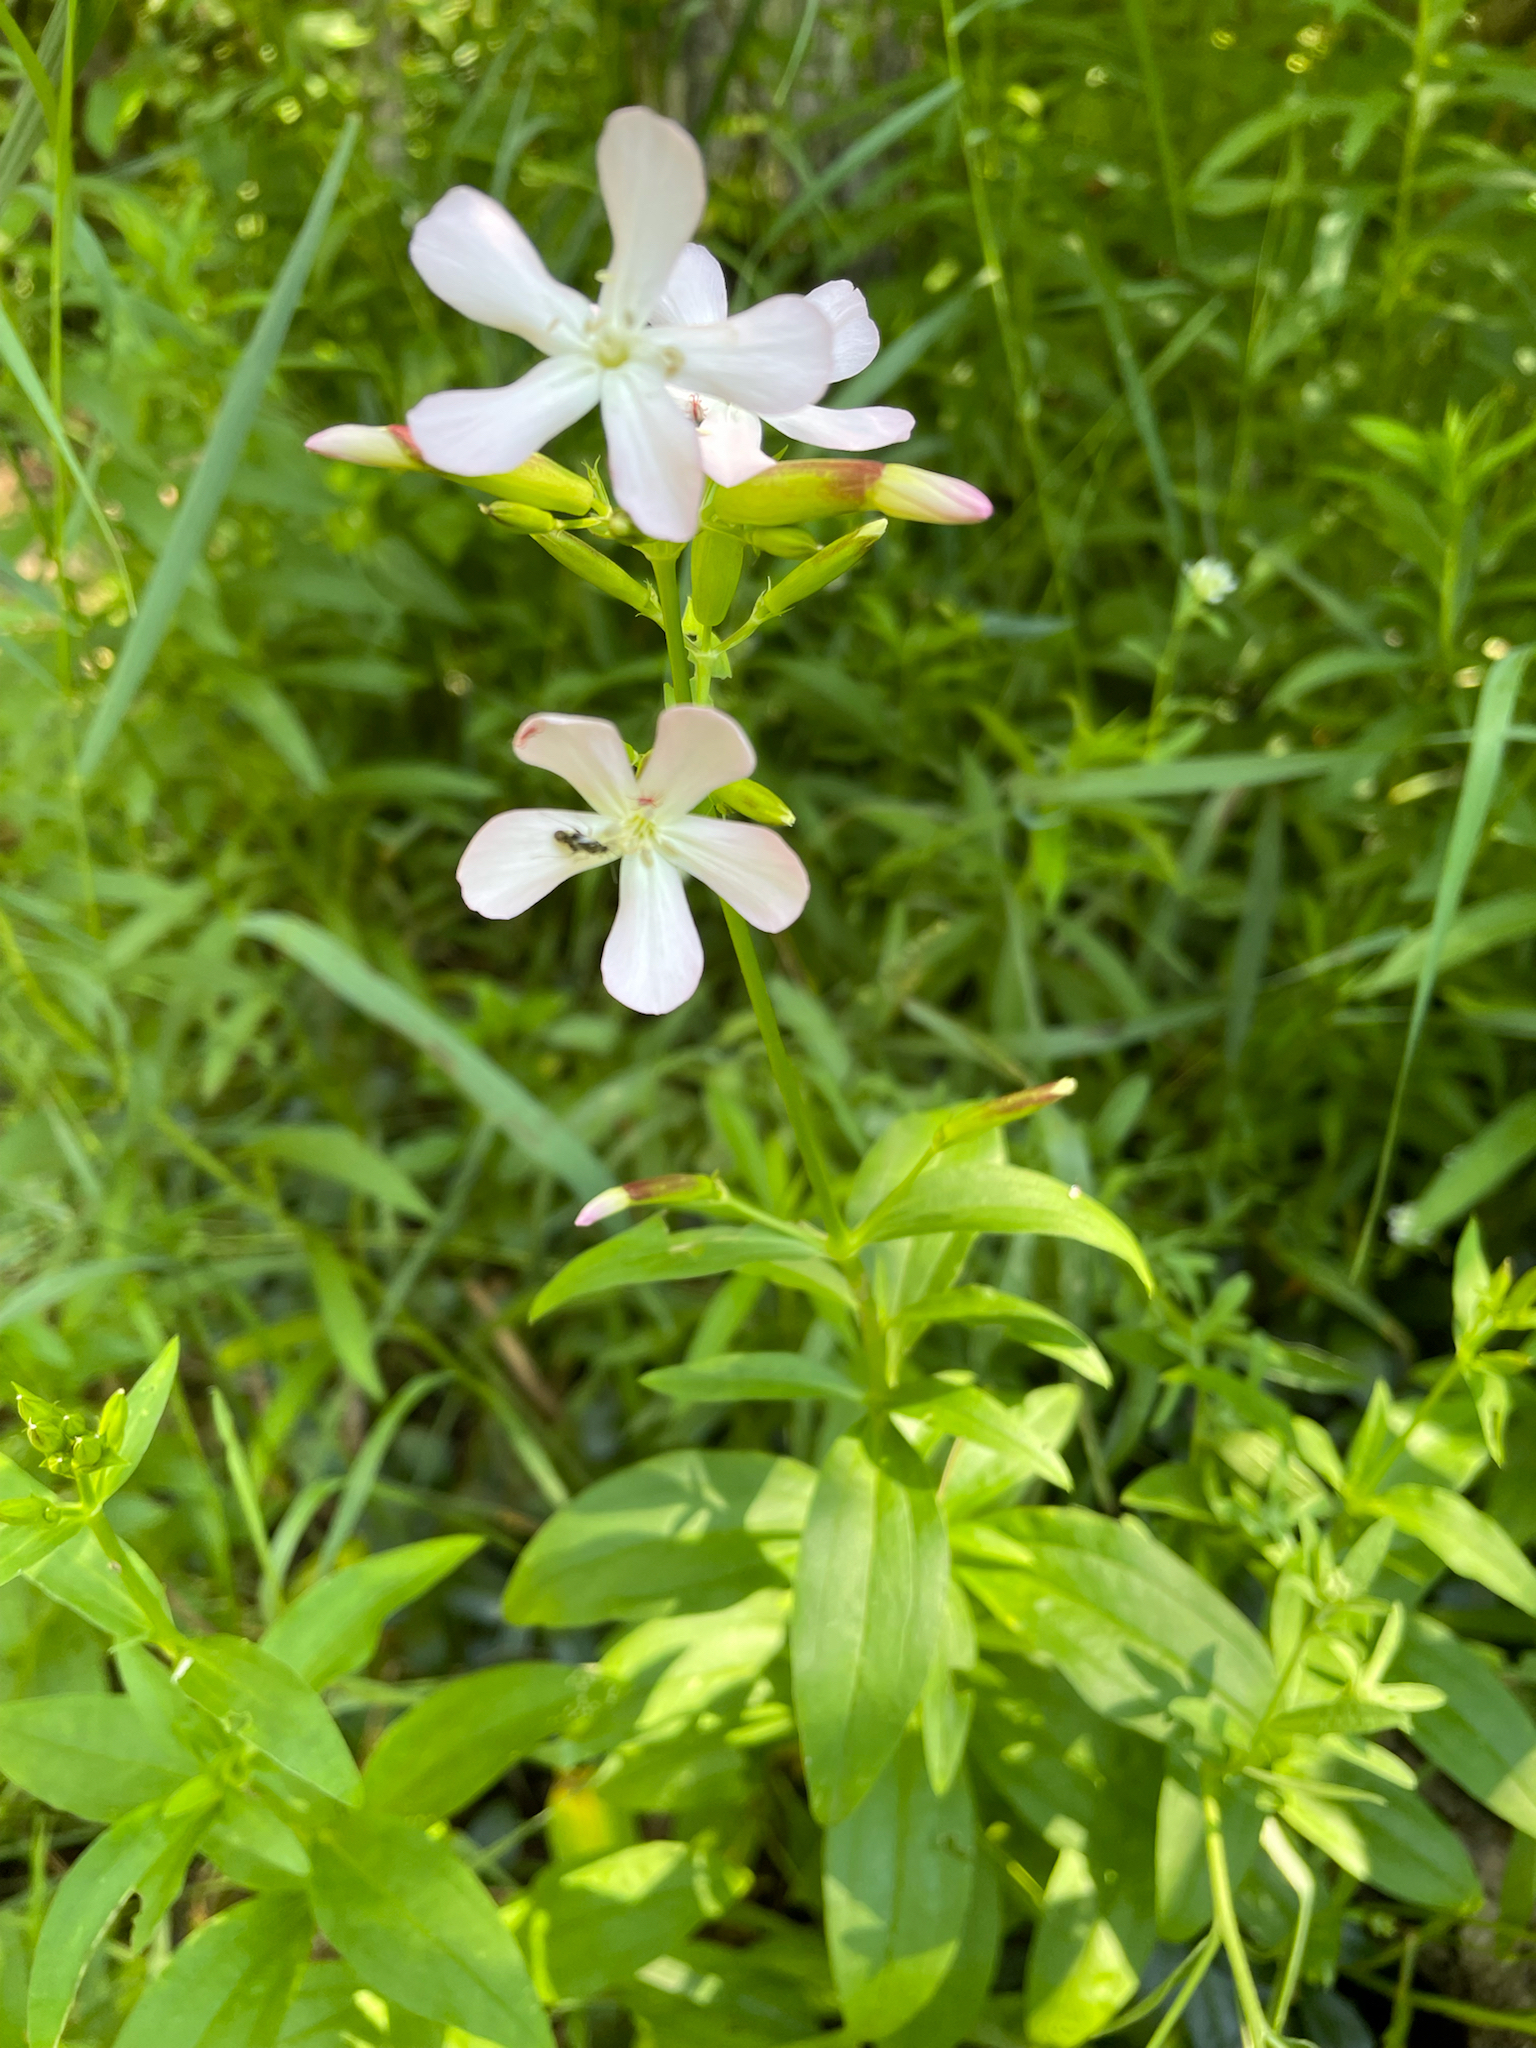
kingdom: Plantae
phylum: Tracheophyta
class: Magnoliopsida
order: Caryophyllales
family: Caryophyllaceae
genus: Saponaria
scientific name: Saponaria officinalis
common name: Soapwort
